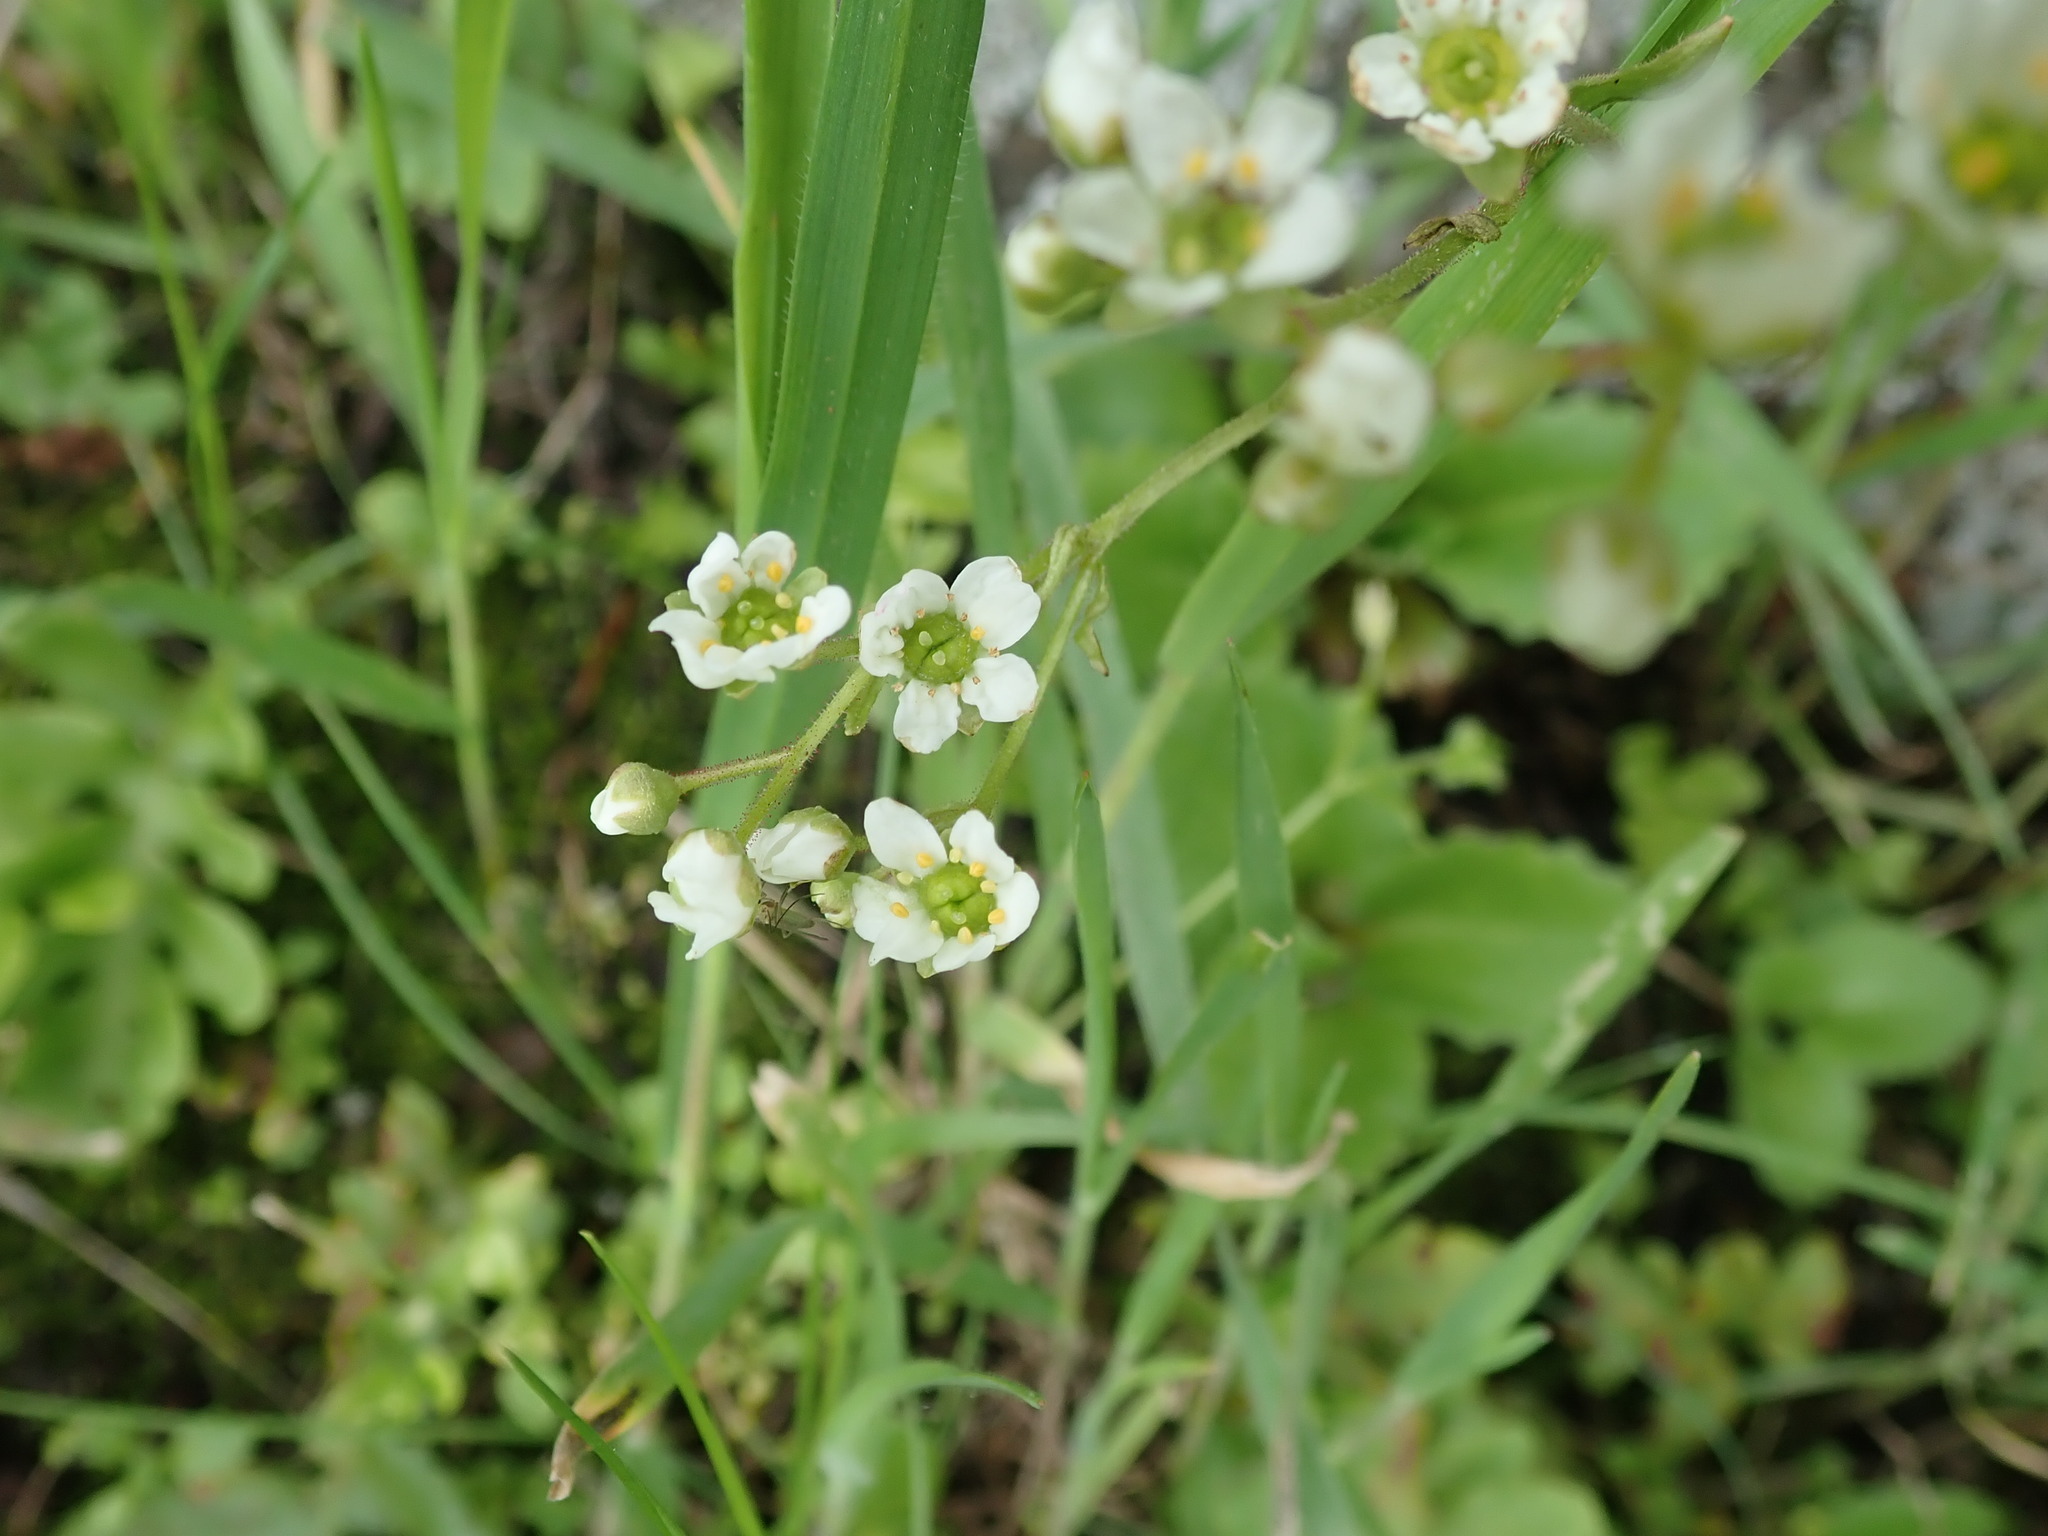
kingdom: Plantae
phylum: Tracheophyta
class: Magnoliopsida
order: Saxifragales
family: Saxifragaceae
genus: Micranthes
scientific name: Micranthes californica
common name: California saxifrage
